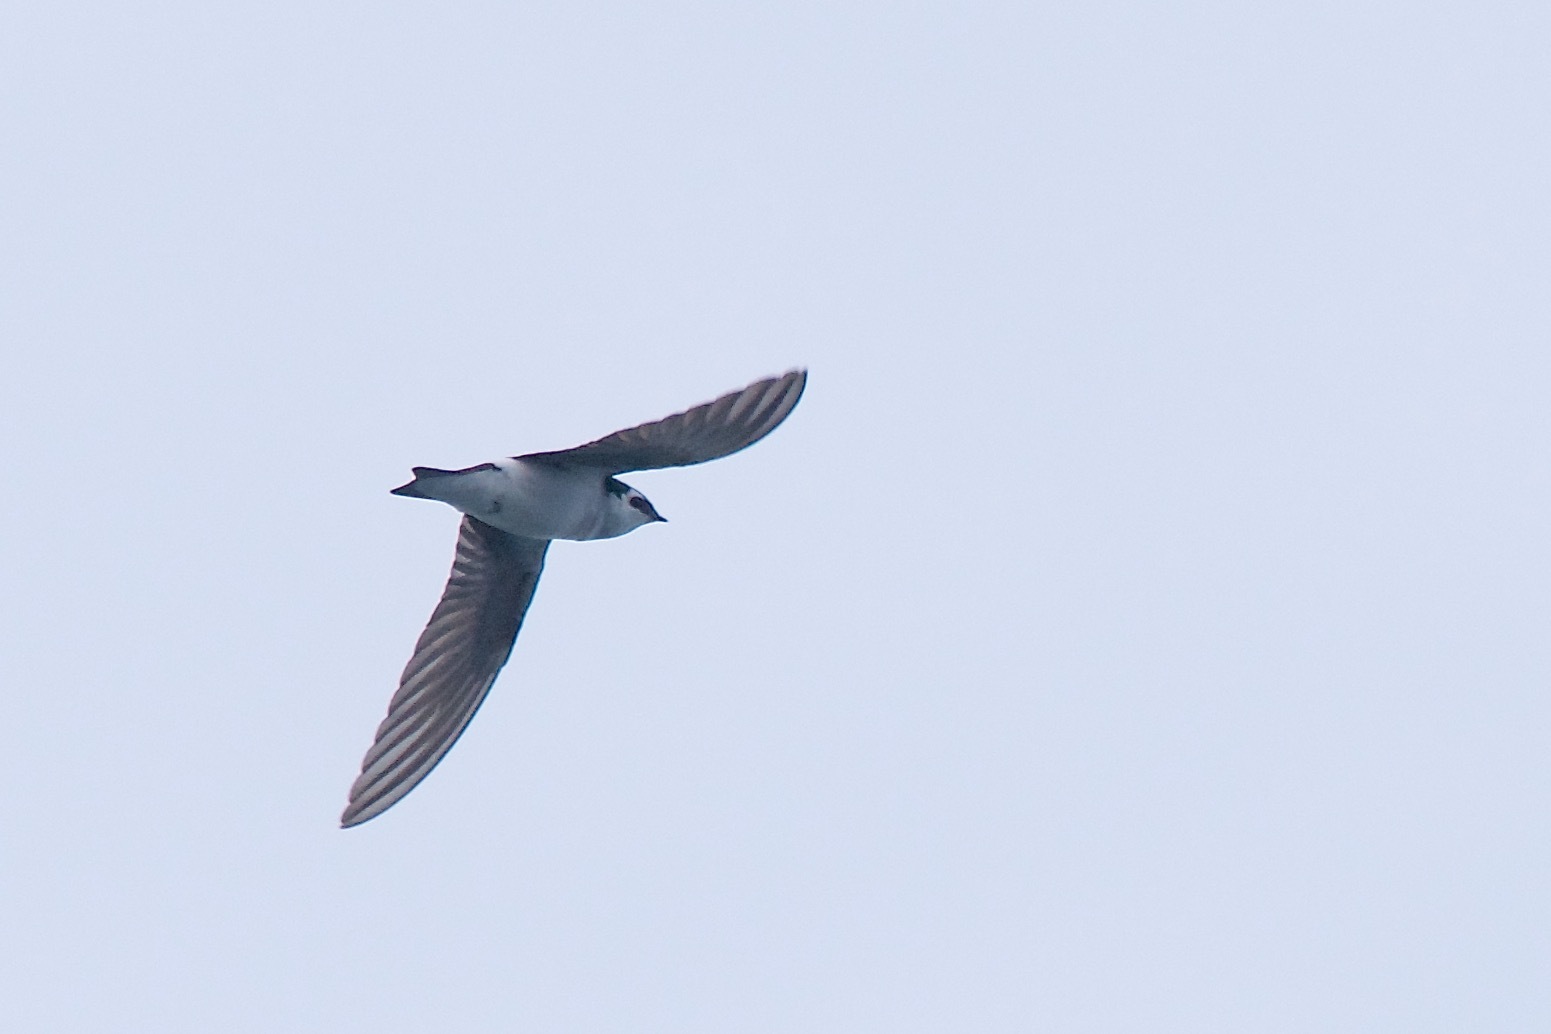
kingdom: Animalia
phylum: Chordata
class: Aves
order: Passeriformes
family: Hirundinidae
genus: Tachycineta
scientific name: Tachycineta thalassina
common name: Violet-green swallow
